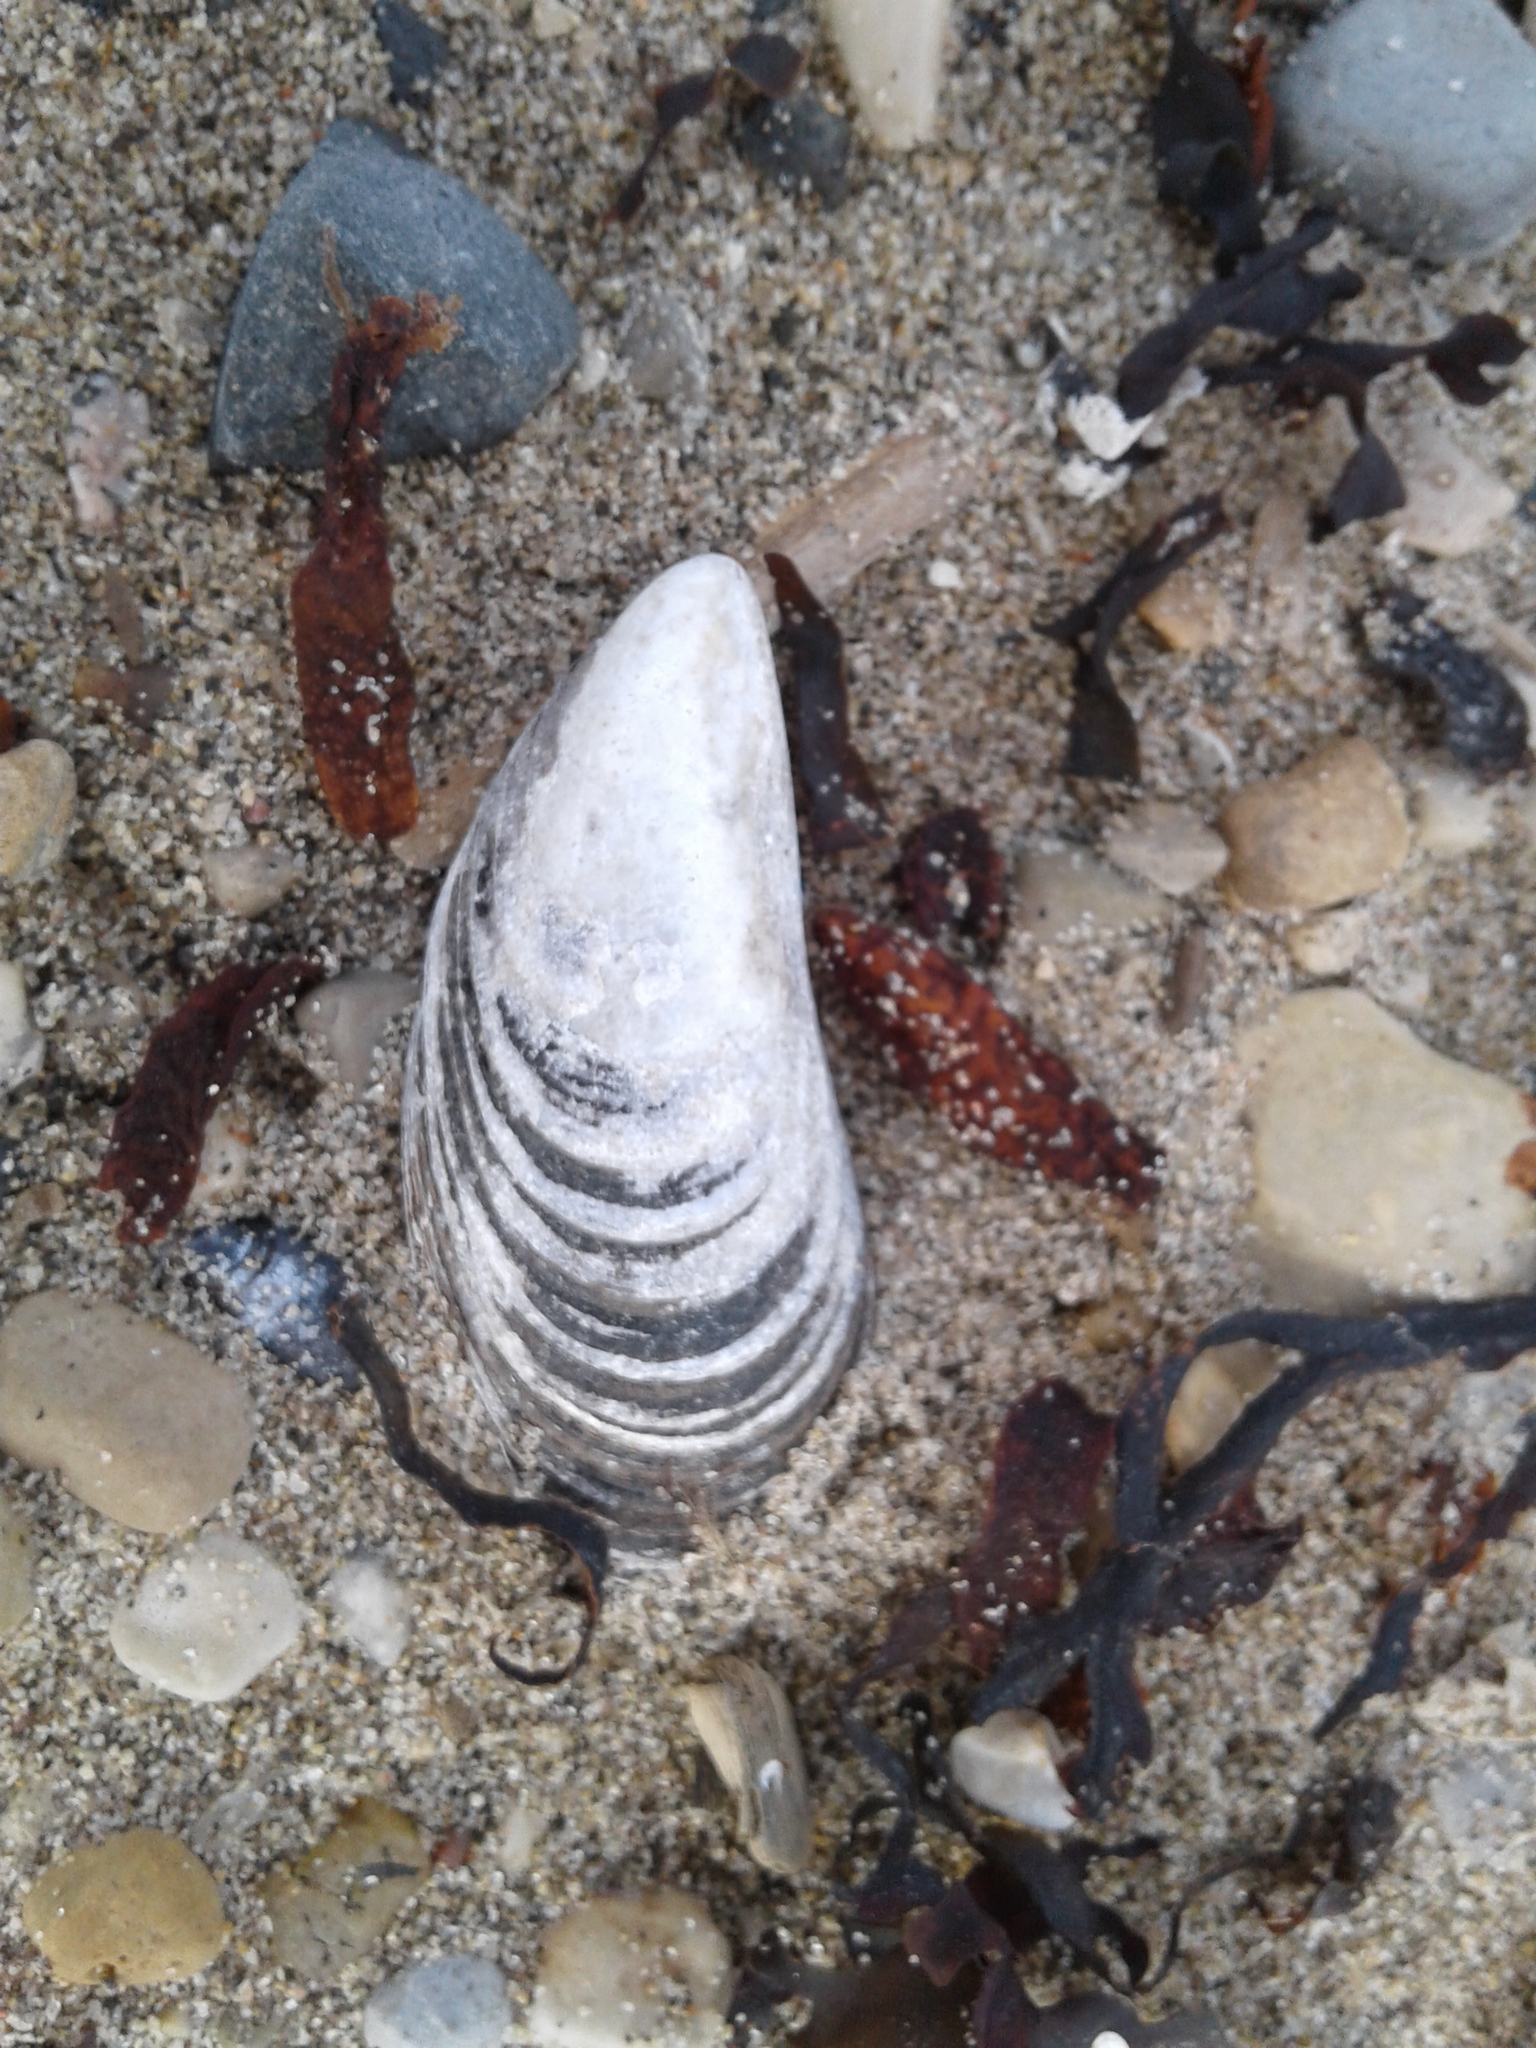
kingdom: Animalia
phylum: Mollusca
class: Bivalvia
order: Mytilida
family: Mytilidae
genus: Mytilus
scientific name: Mytilus edulis
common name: Blue mussel
